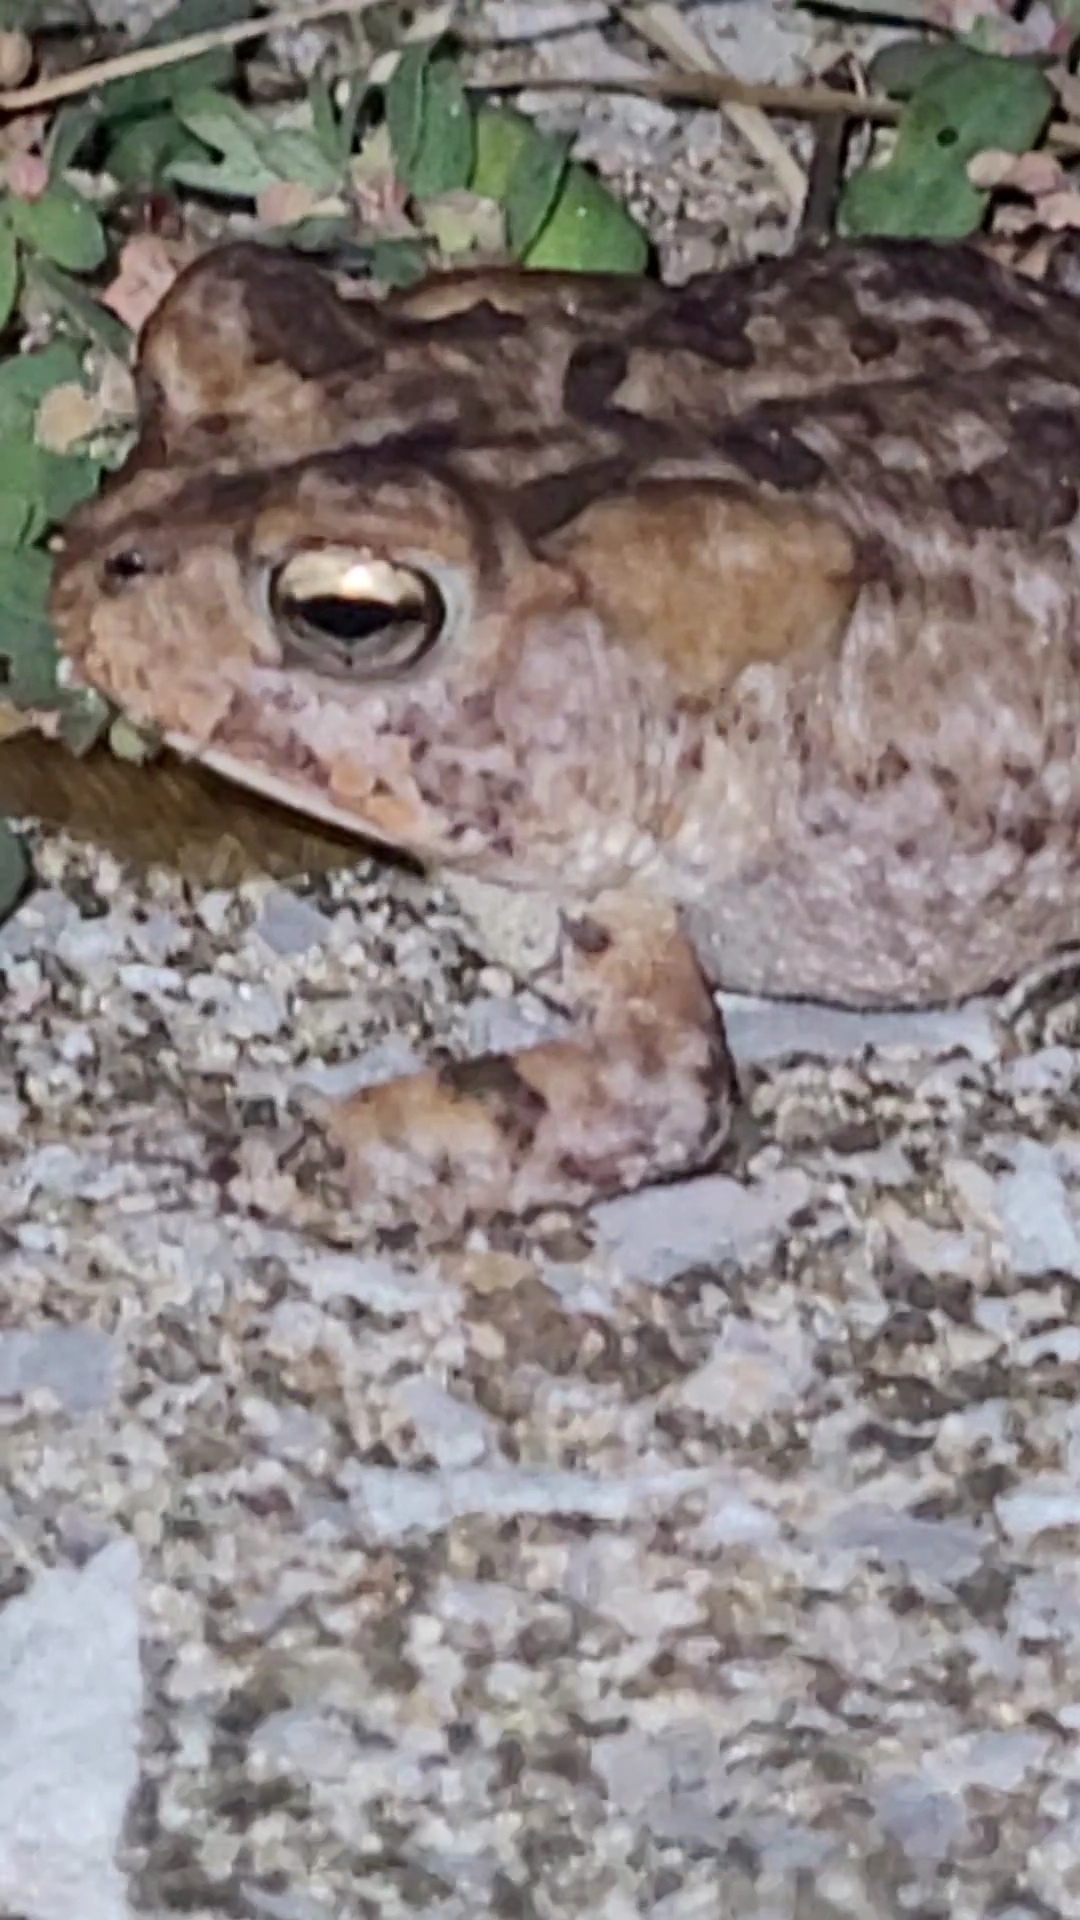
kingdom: Animalia
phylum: Chordata
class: Amphibia
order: Anura
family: Bufonidae
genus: Anaxyrus
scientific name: Anaxyrus terrestris
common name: Southern toad
